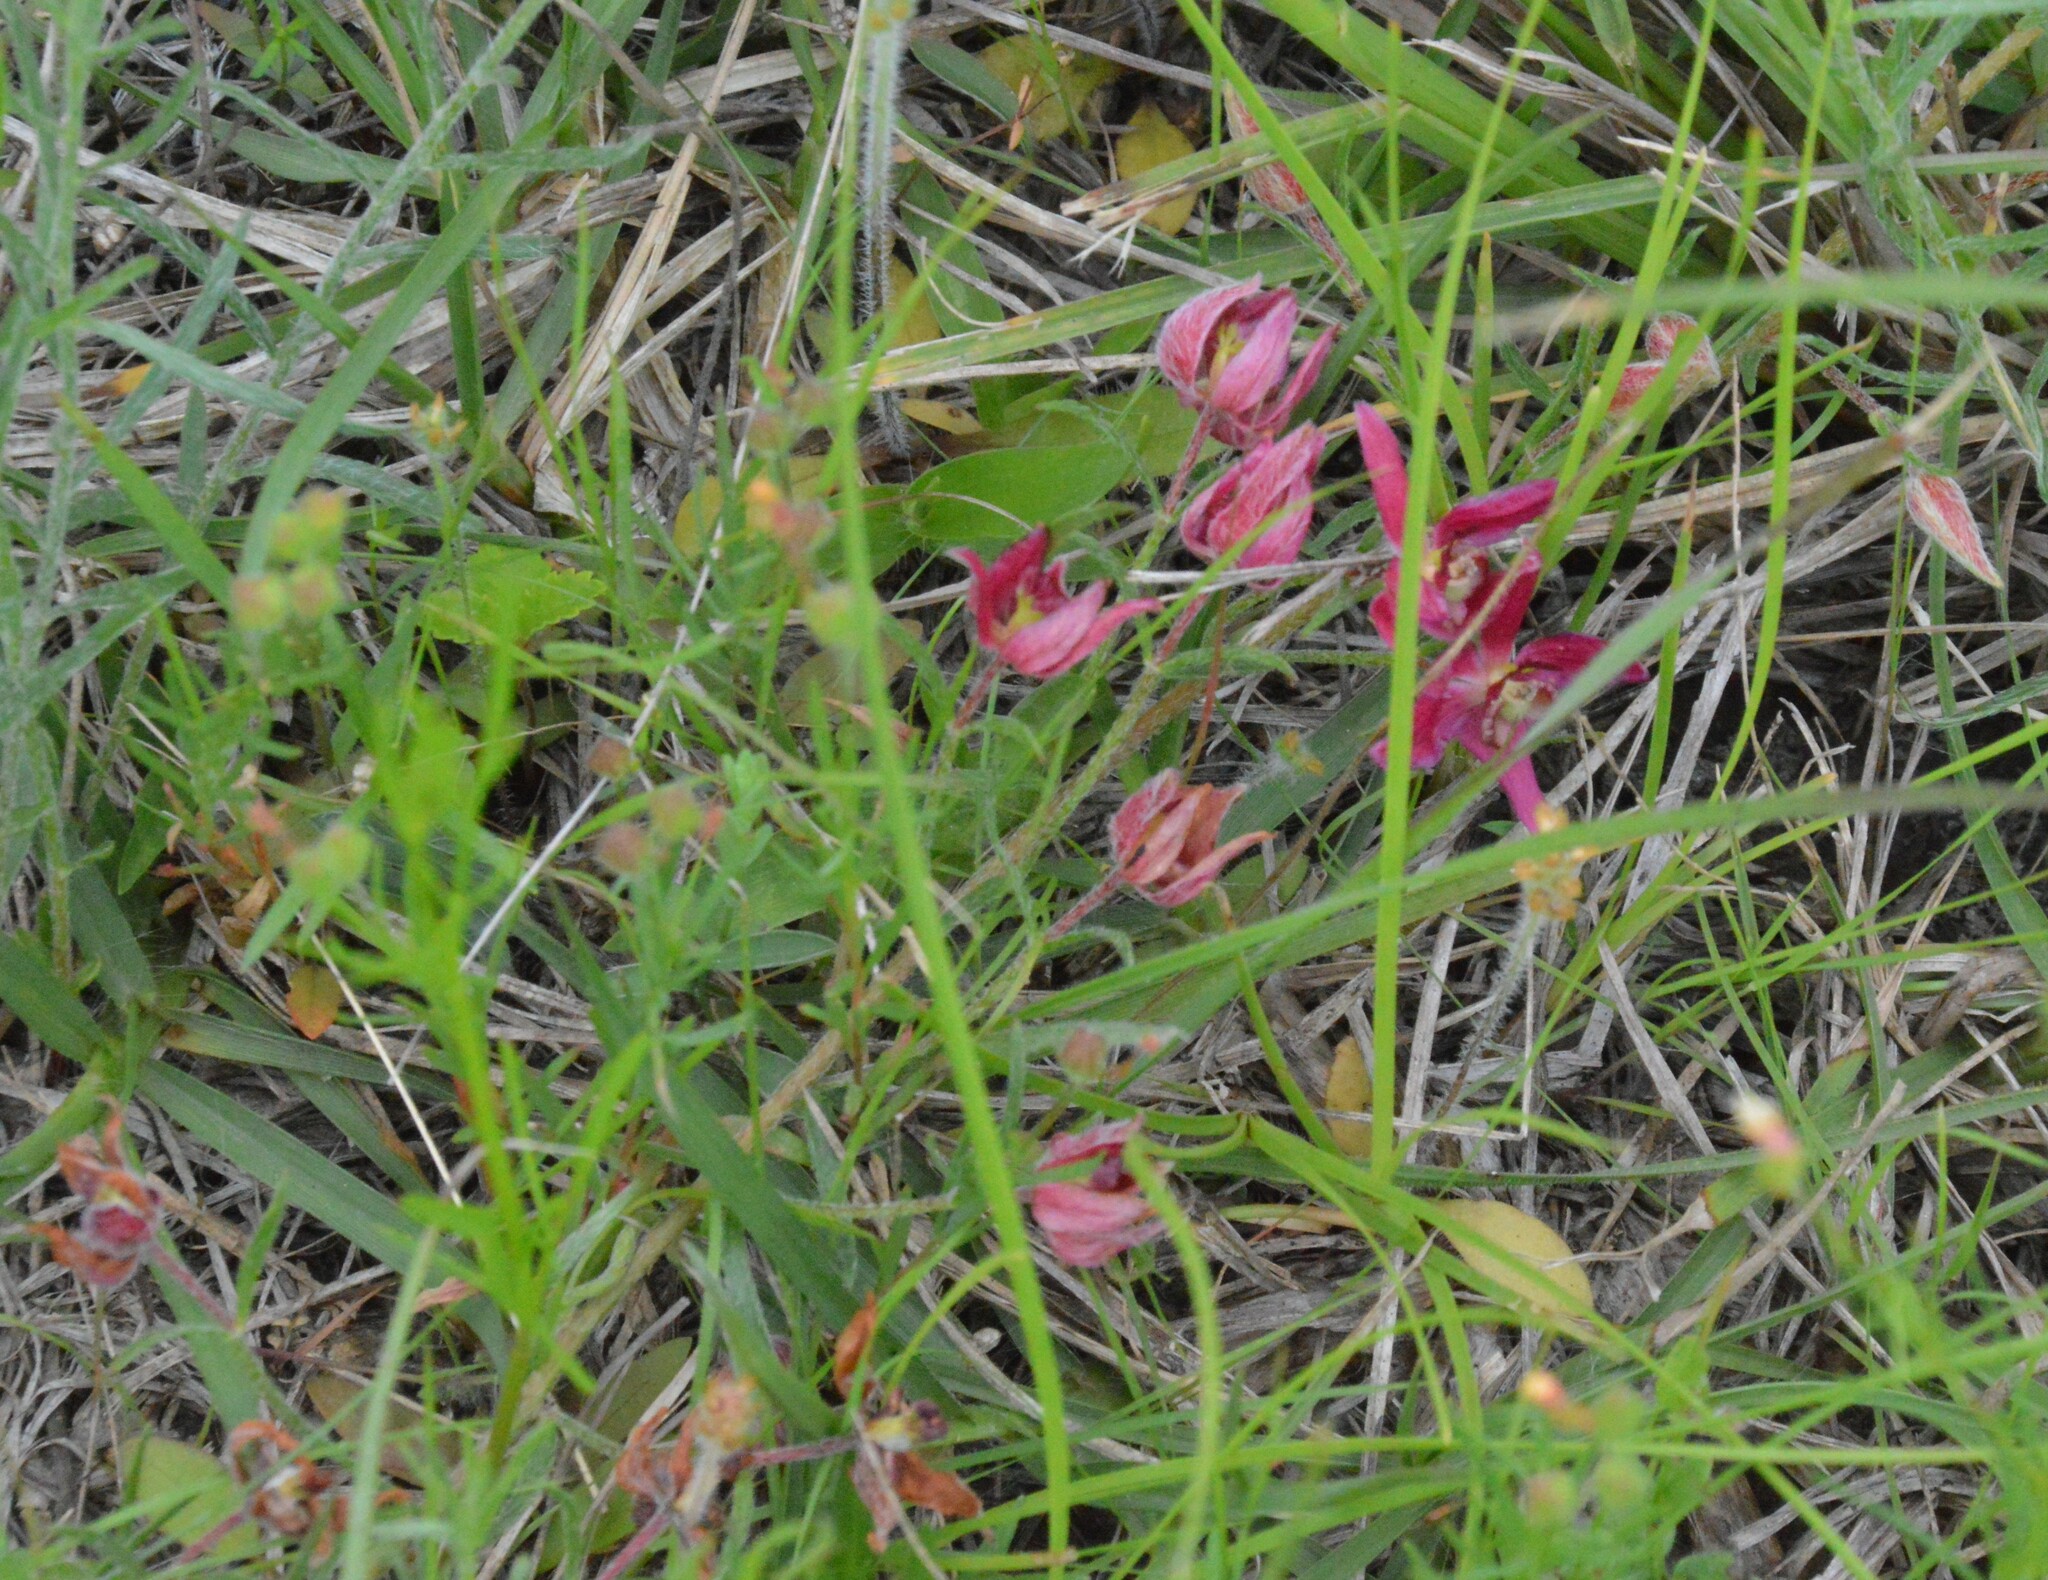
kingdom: Plantae
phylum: Tracheophyta
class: Magnoliopsida
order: Zygophyllales
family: Krameriaceae
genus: Krameria
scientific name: Krameria lanceolata
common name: Ratany
